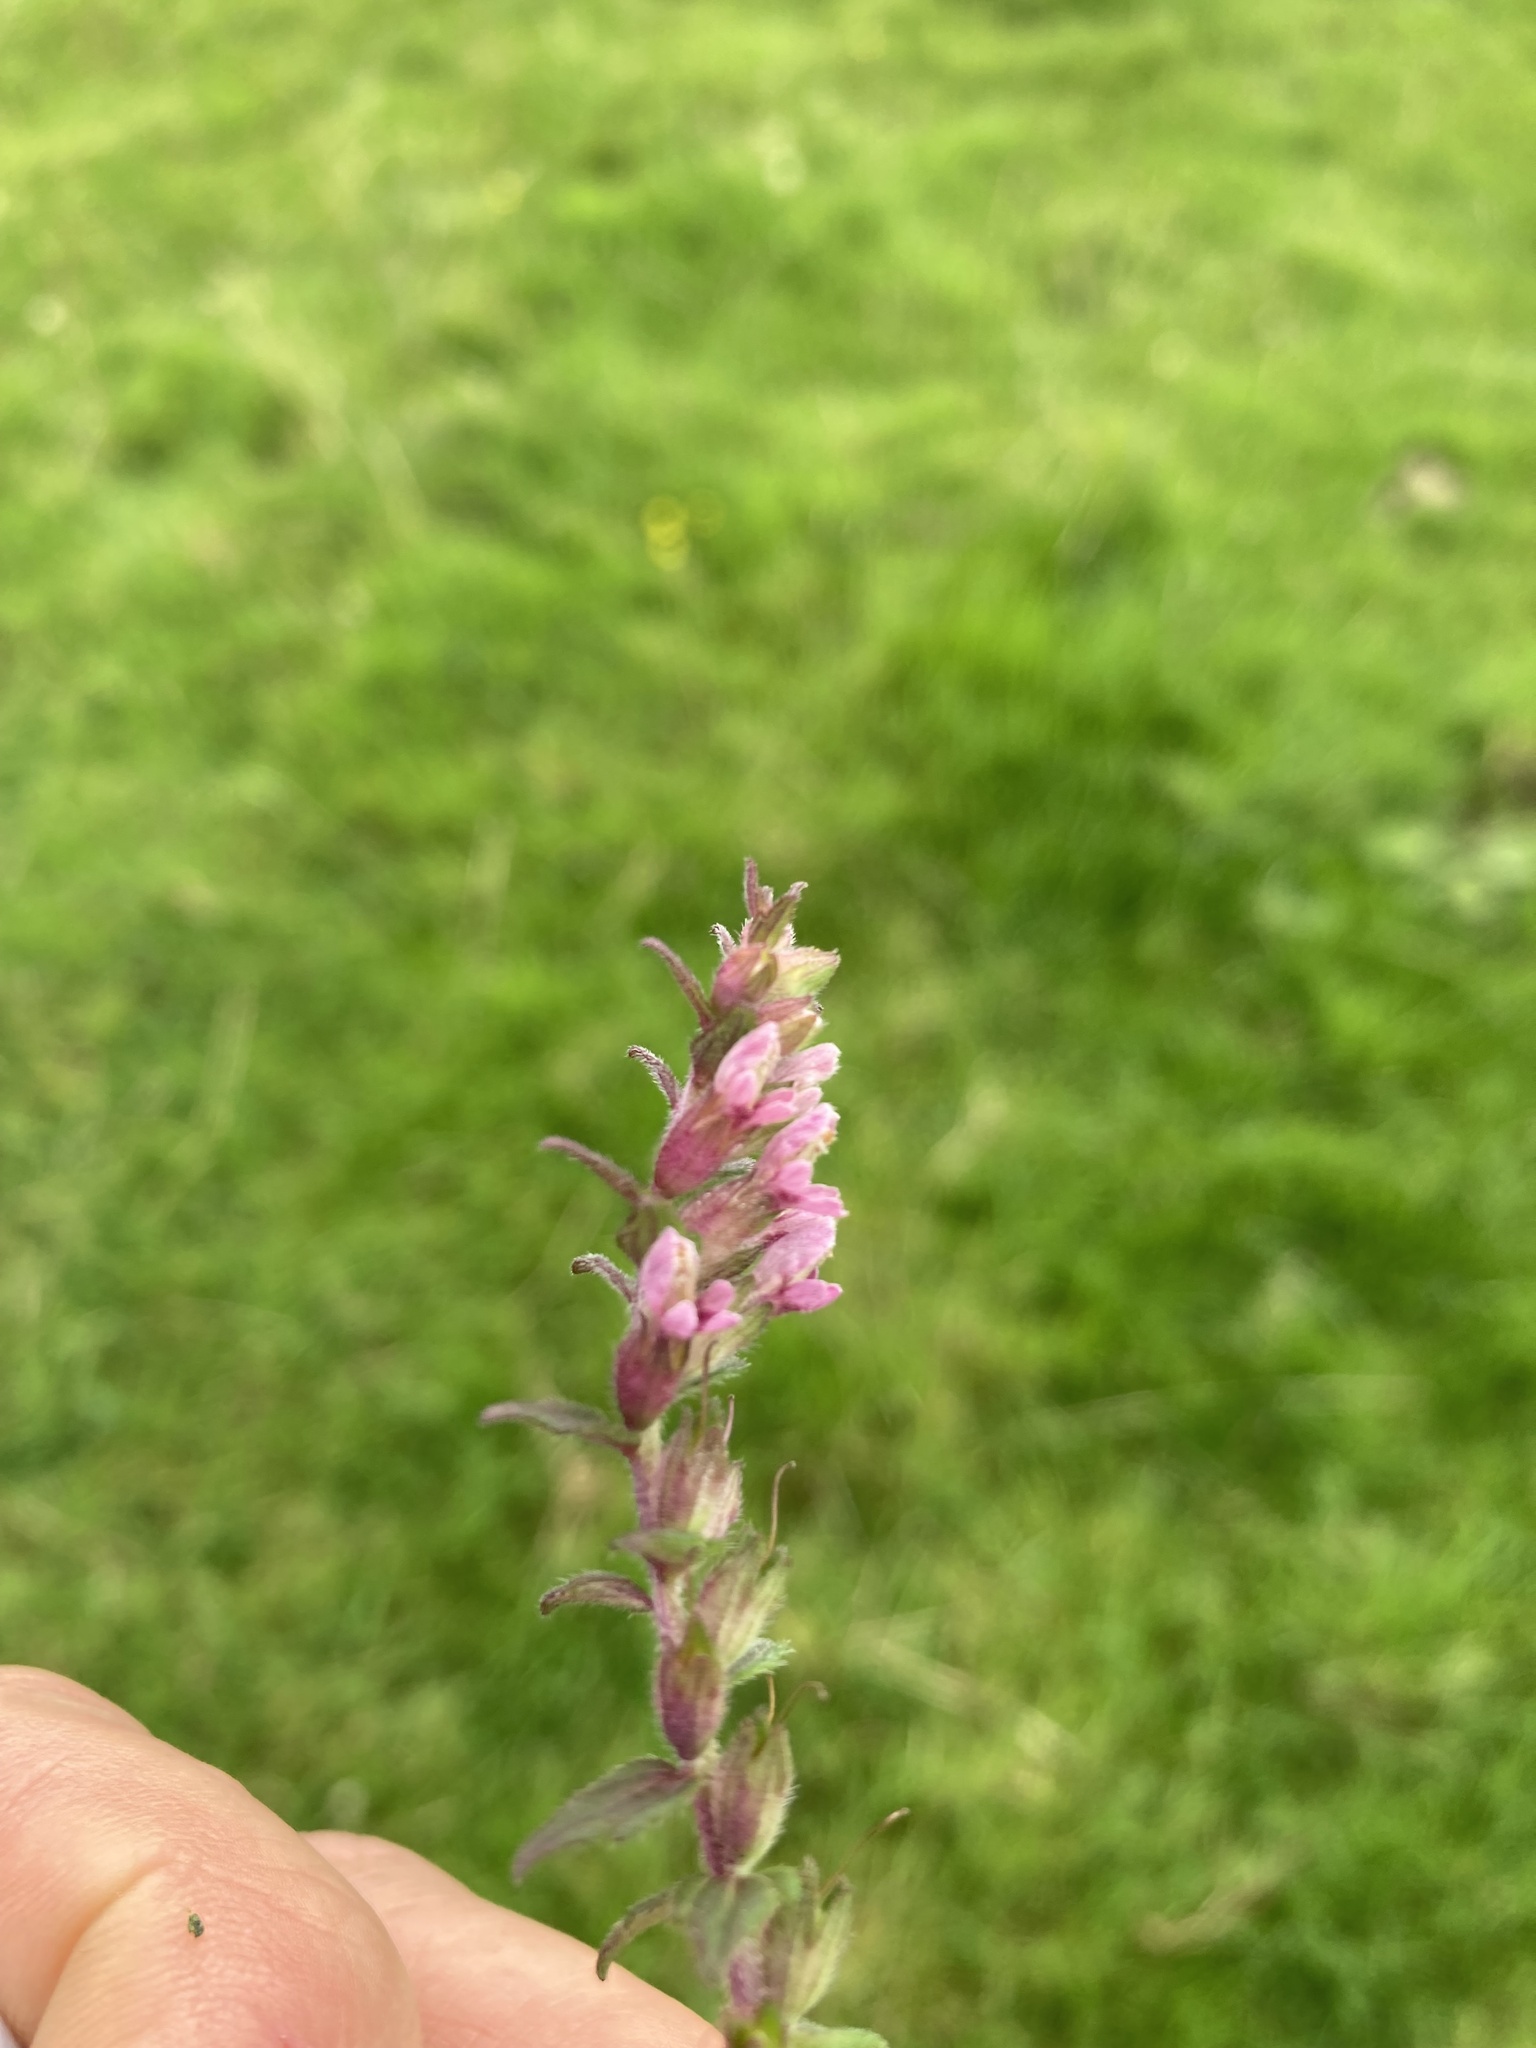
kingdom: Plantae
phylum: Tracheophyta
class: Magnoliopsida
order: Lamiales
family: Orobanchaceae
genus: Odontites
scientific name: Odontites vulgaris
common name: Broomrape
